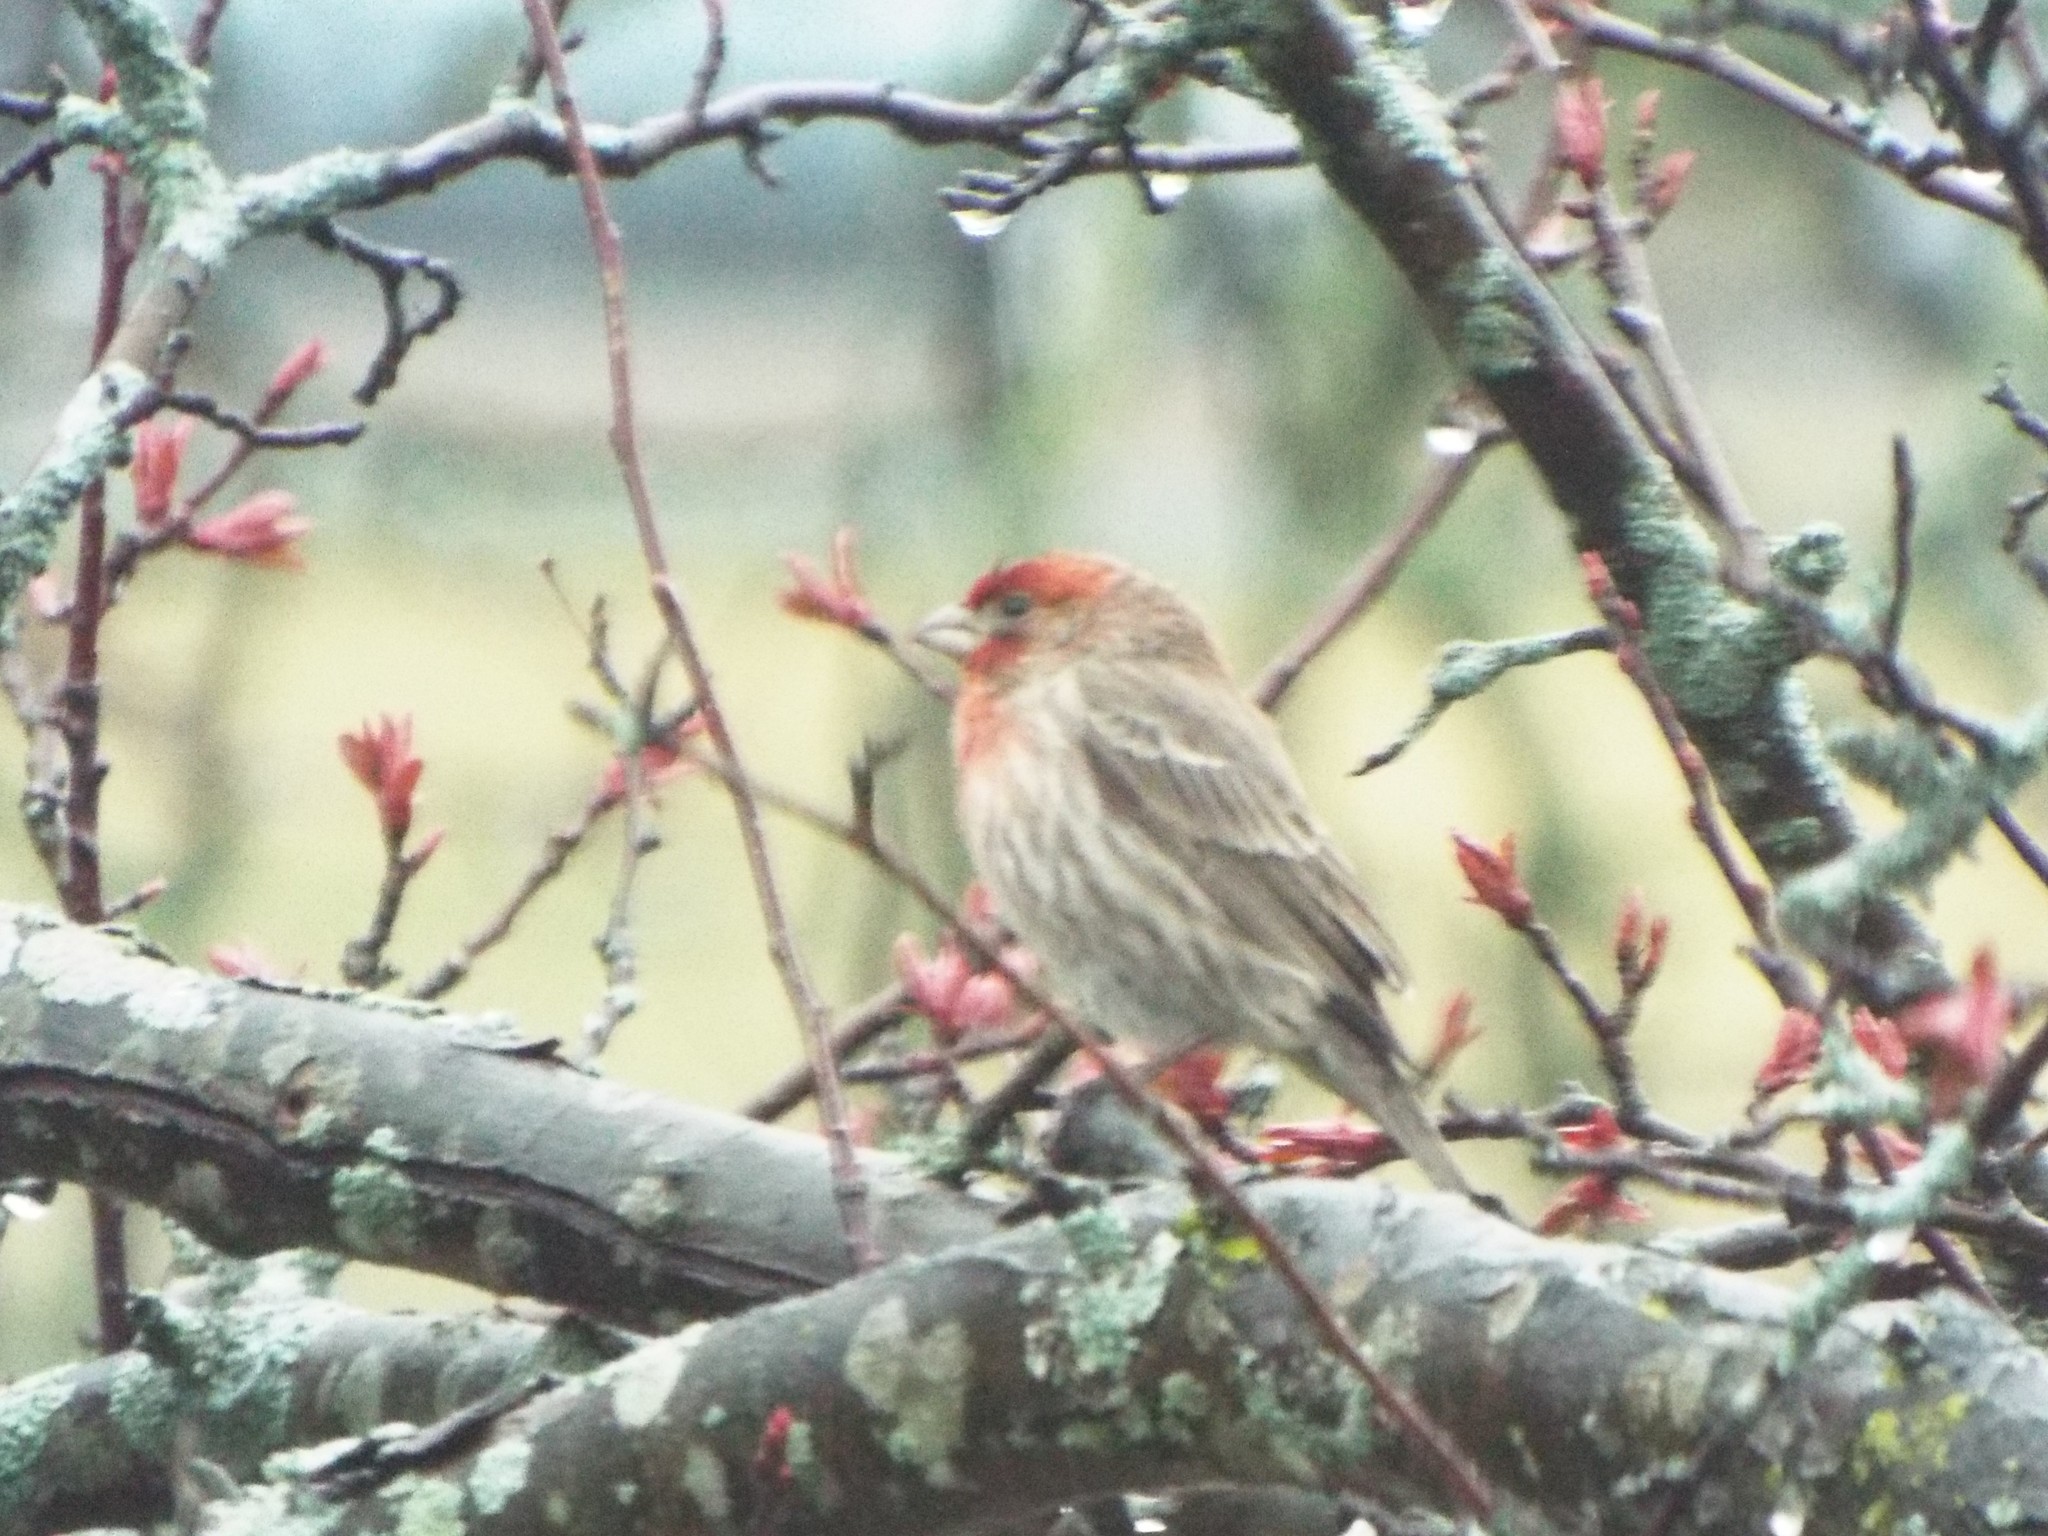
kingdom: Animalia
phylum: Chordata
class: Aves
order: Passeriformes
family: Fringillidae
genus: Haemorhous
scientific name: Haemorhous mexicanus
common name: House finch
